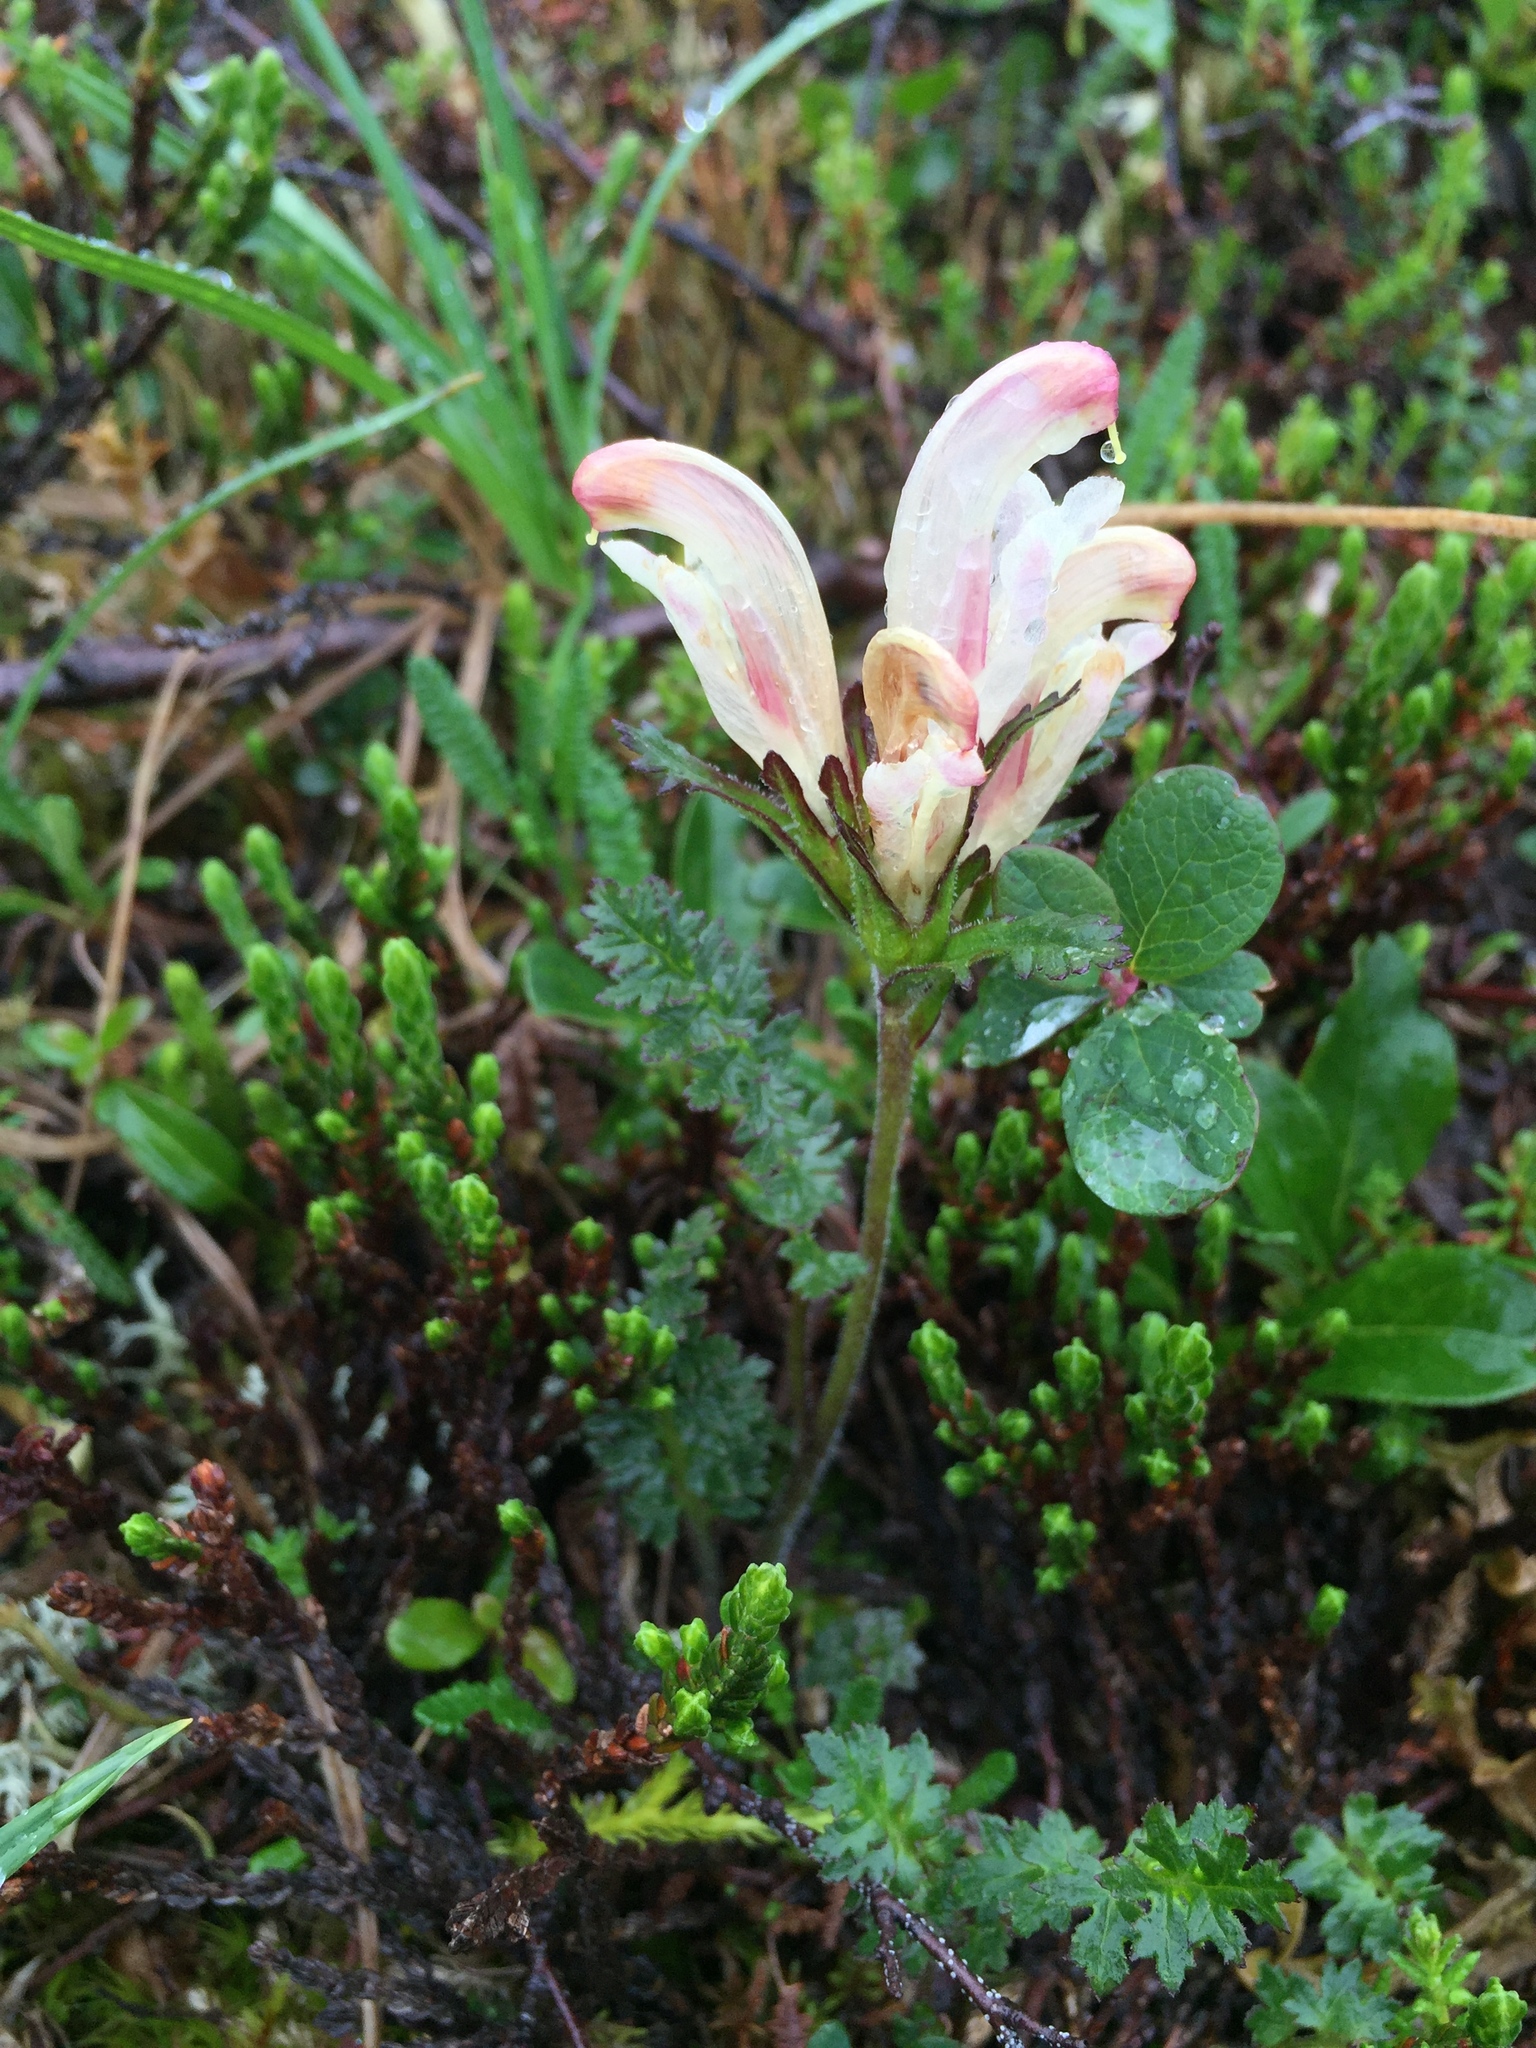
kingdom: Plantae
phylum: Tracheophyta
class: Magnoliopsida
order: Lamiales
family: Orobanchaceae
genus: Pedicularis
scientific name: Pedicularis capitata
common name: Capitate lousewort
